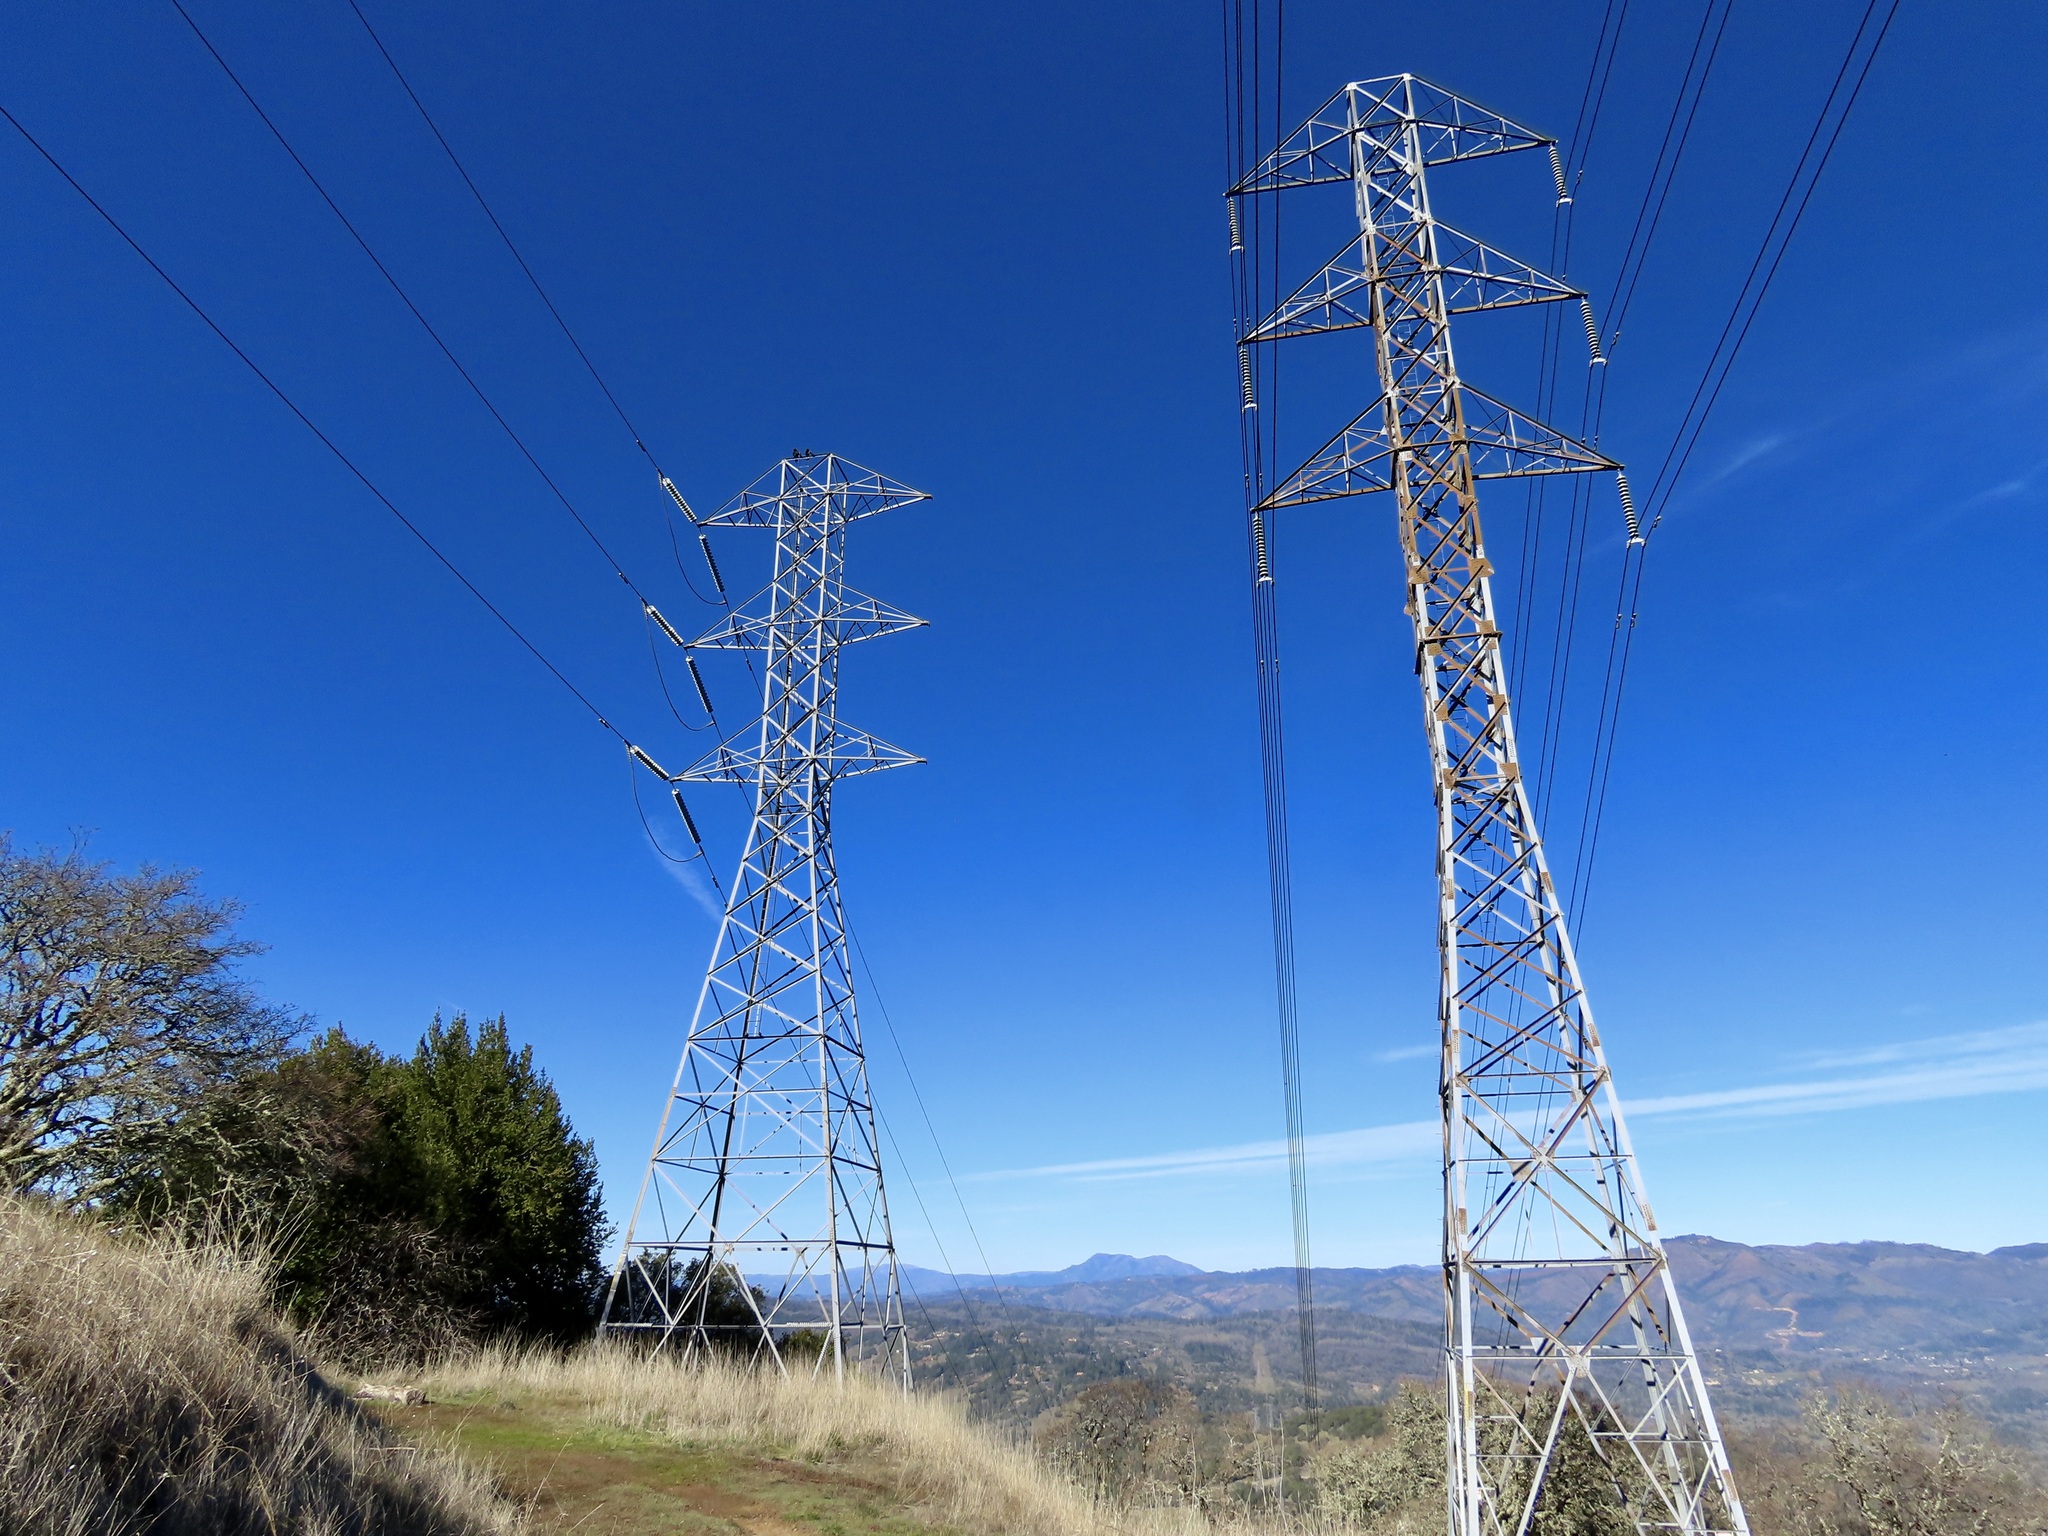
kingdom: Animalia
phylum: Chordata
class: Aves
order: Passeriformes
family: Corvidae
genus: Corvus
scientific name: Corvus corax
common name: Common raven
